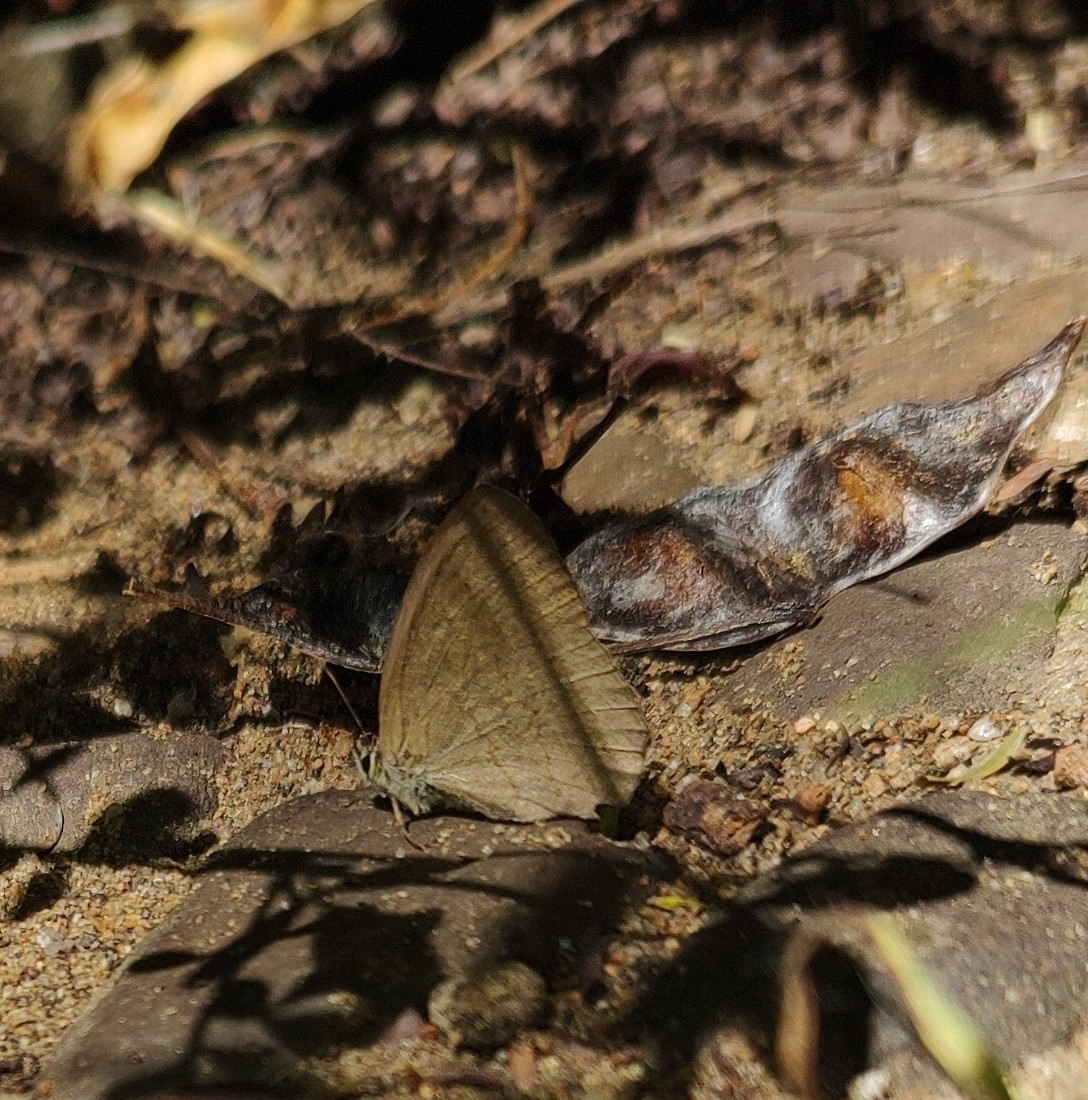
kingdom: Animalia
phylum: Arthropoda
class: Insecta
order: Lepidoptera
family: Nymphalidae
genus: Euptychia
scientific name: Euptychia
